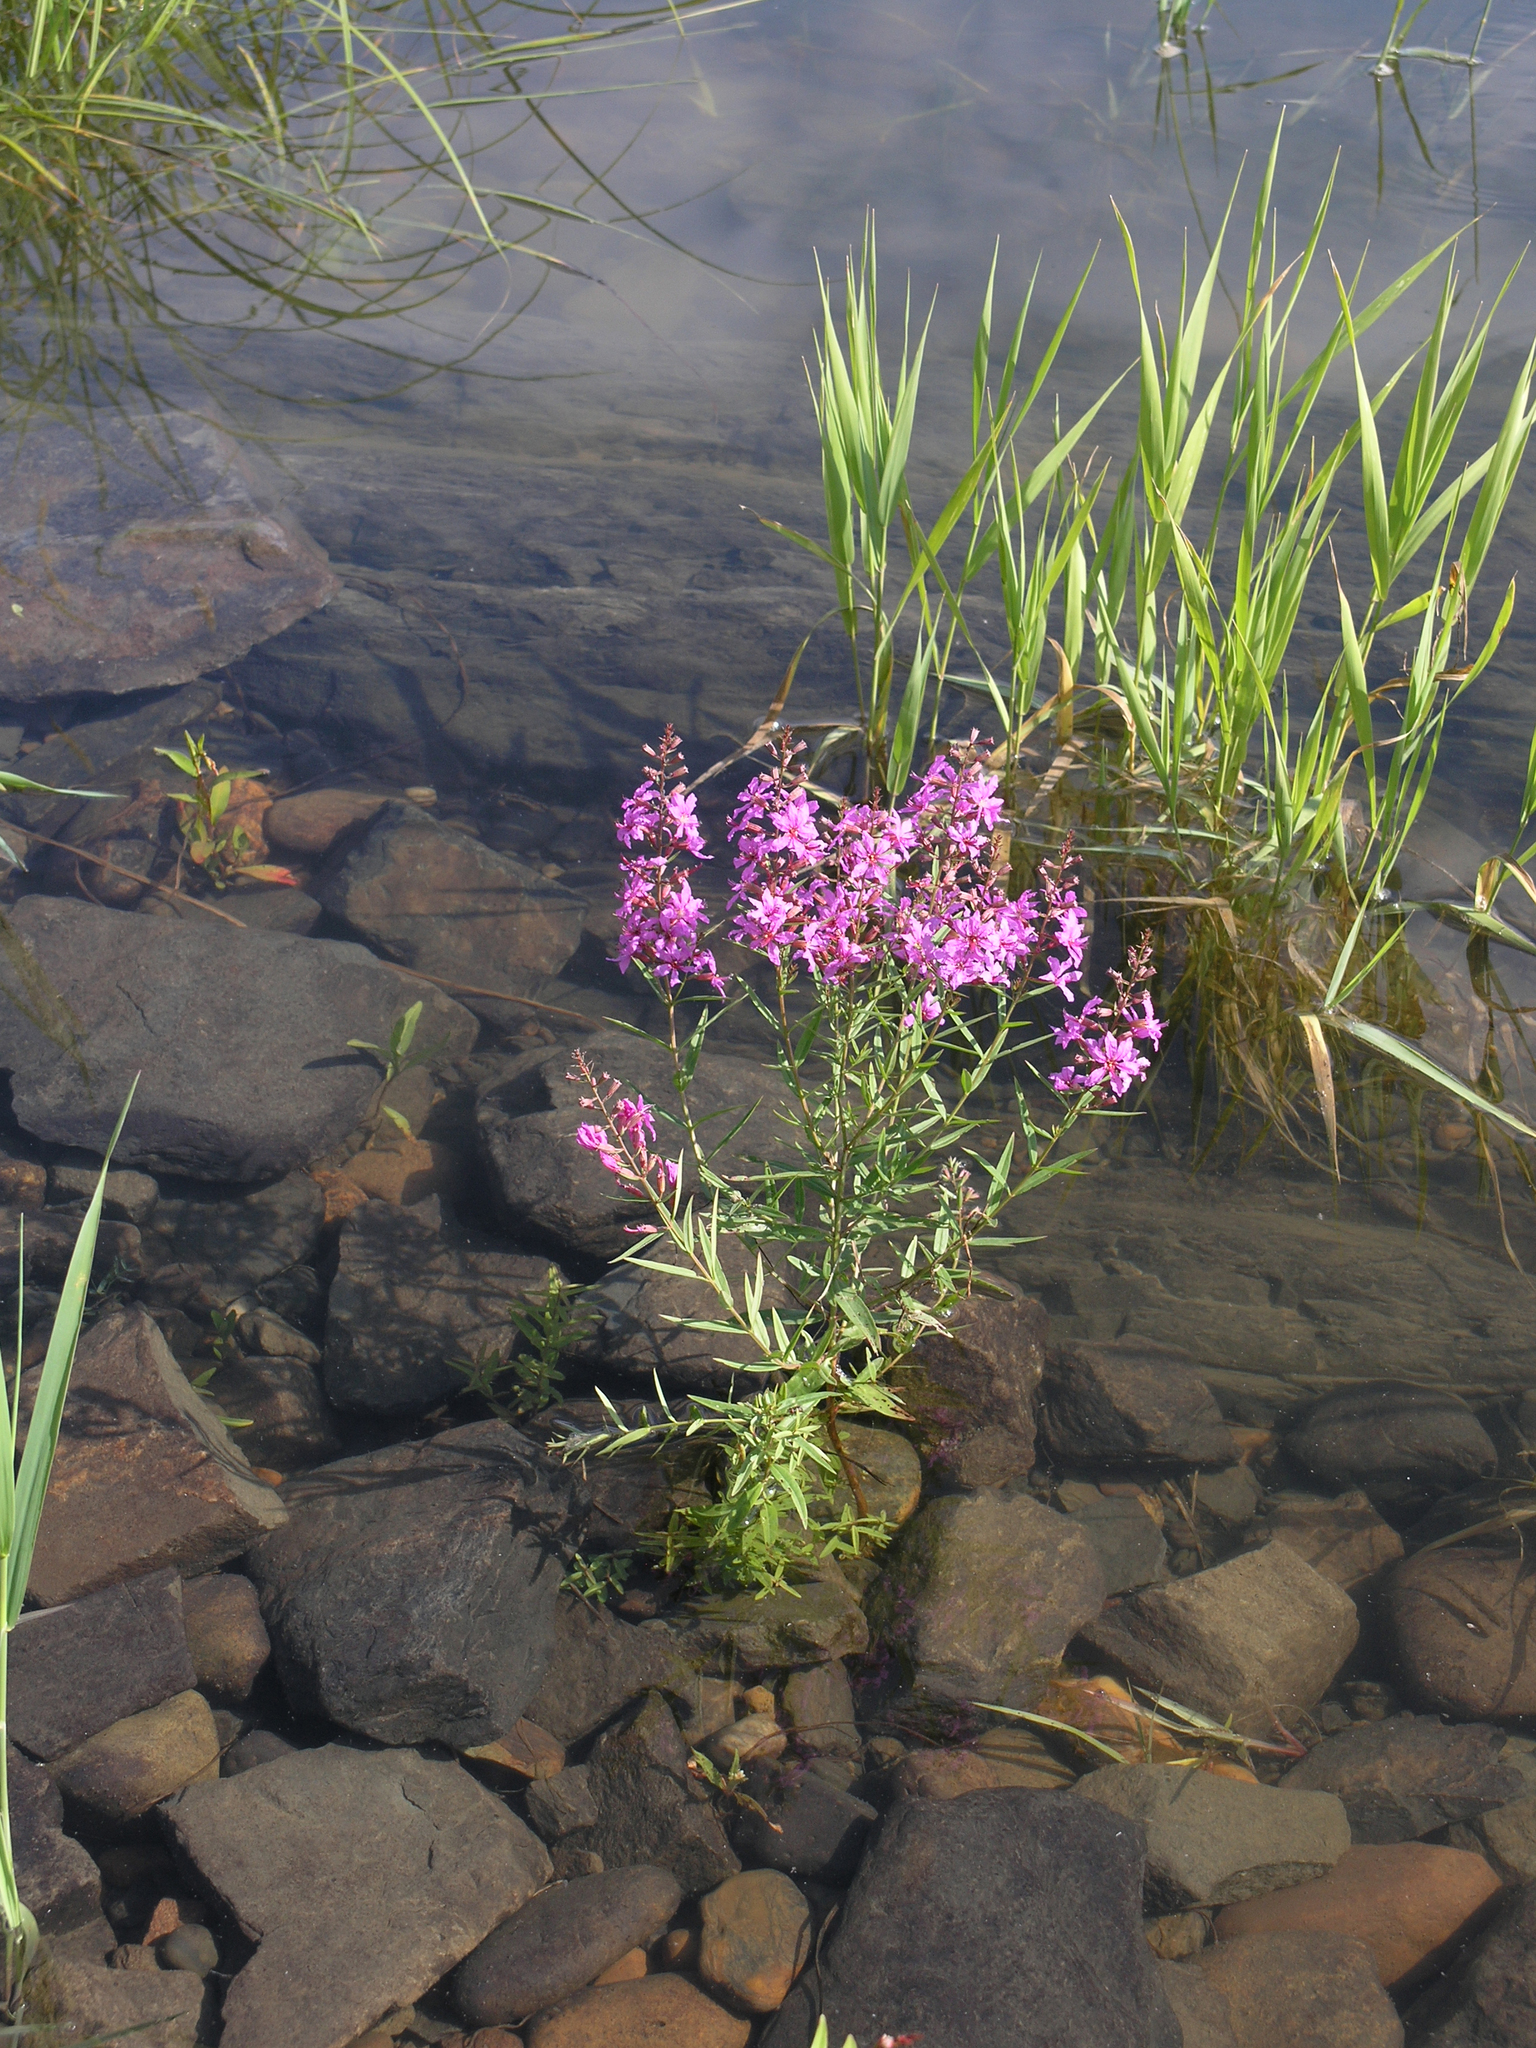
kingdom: Plantae
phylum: Tracheophyta
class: Magnoliopsida
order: Myrtales
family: Lythraceae
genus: Lythrum
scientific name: Lythrum salicaria
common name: Purple loosestrife
